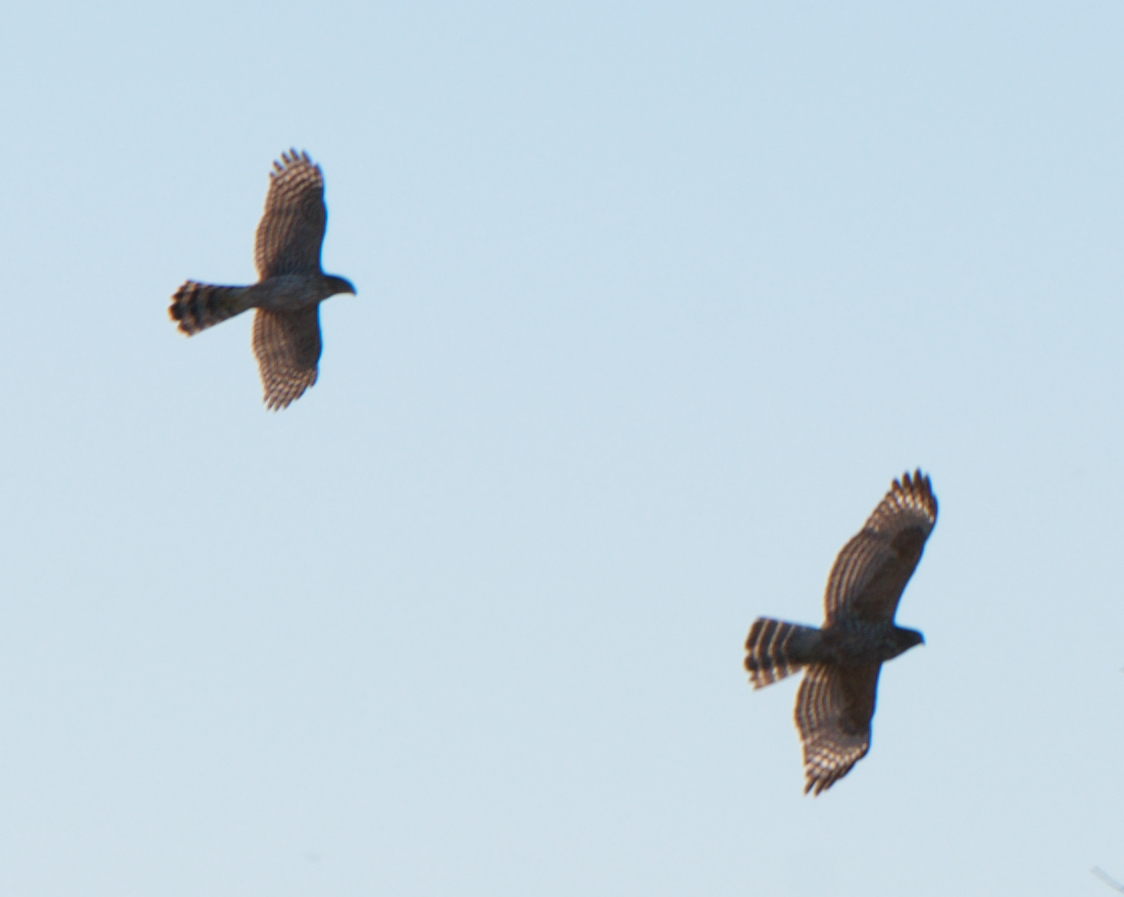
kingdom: Animalia
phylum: Chordata
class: Aves
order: Accipitriformes
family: Accipitridae
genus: Accipiter
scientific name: Accipiter cooperii
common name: Cooper's hawk
